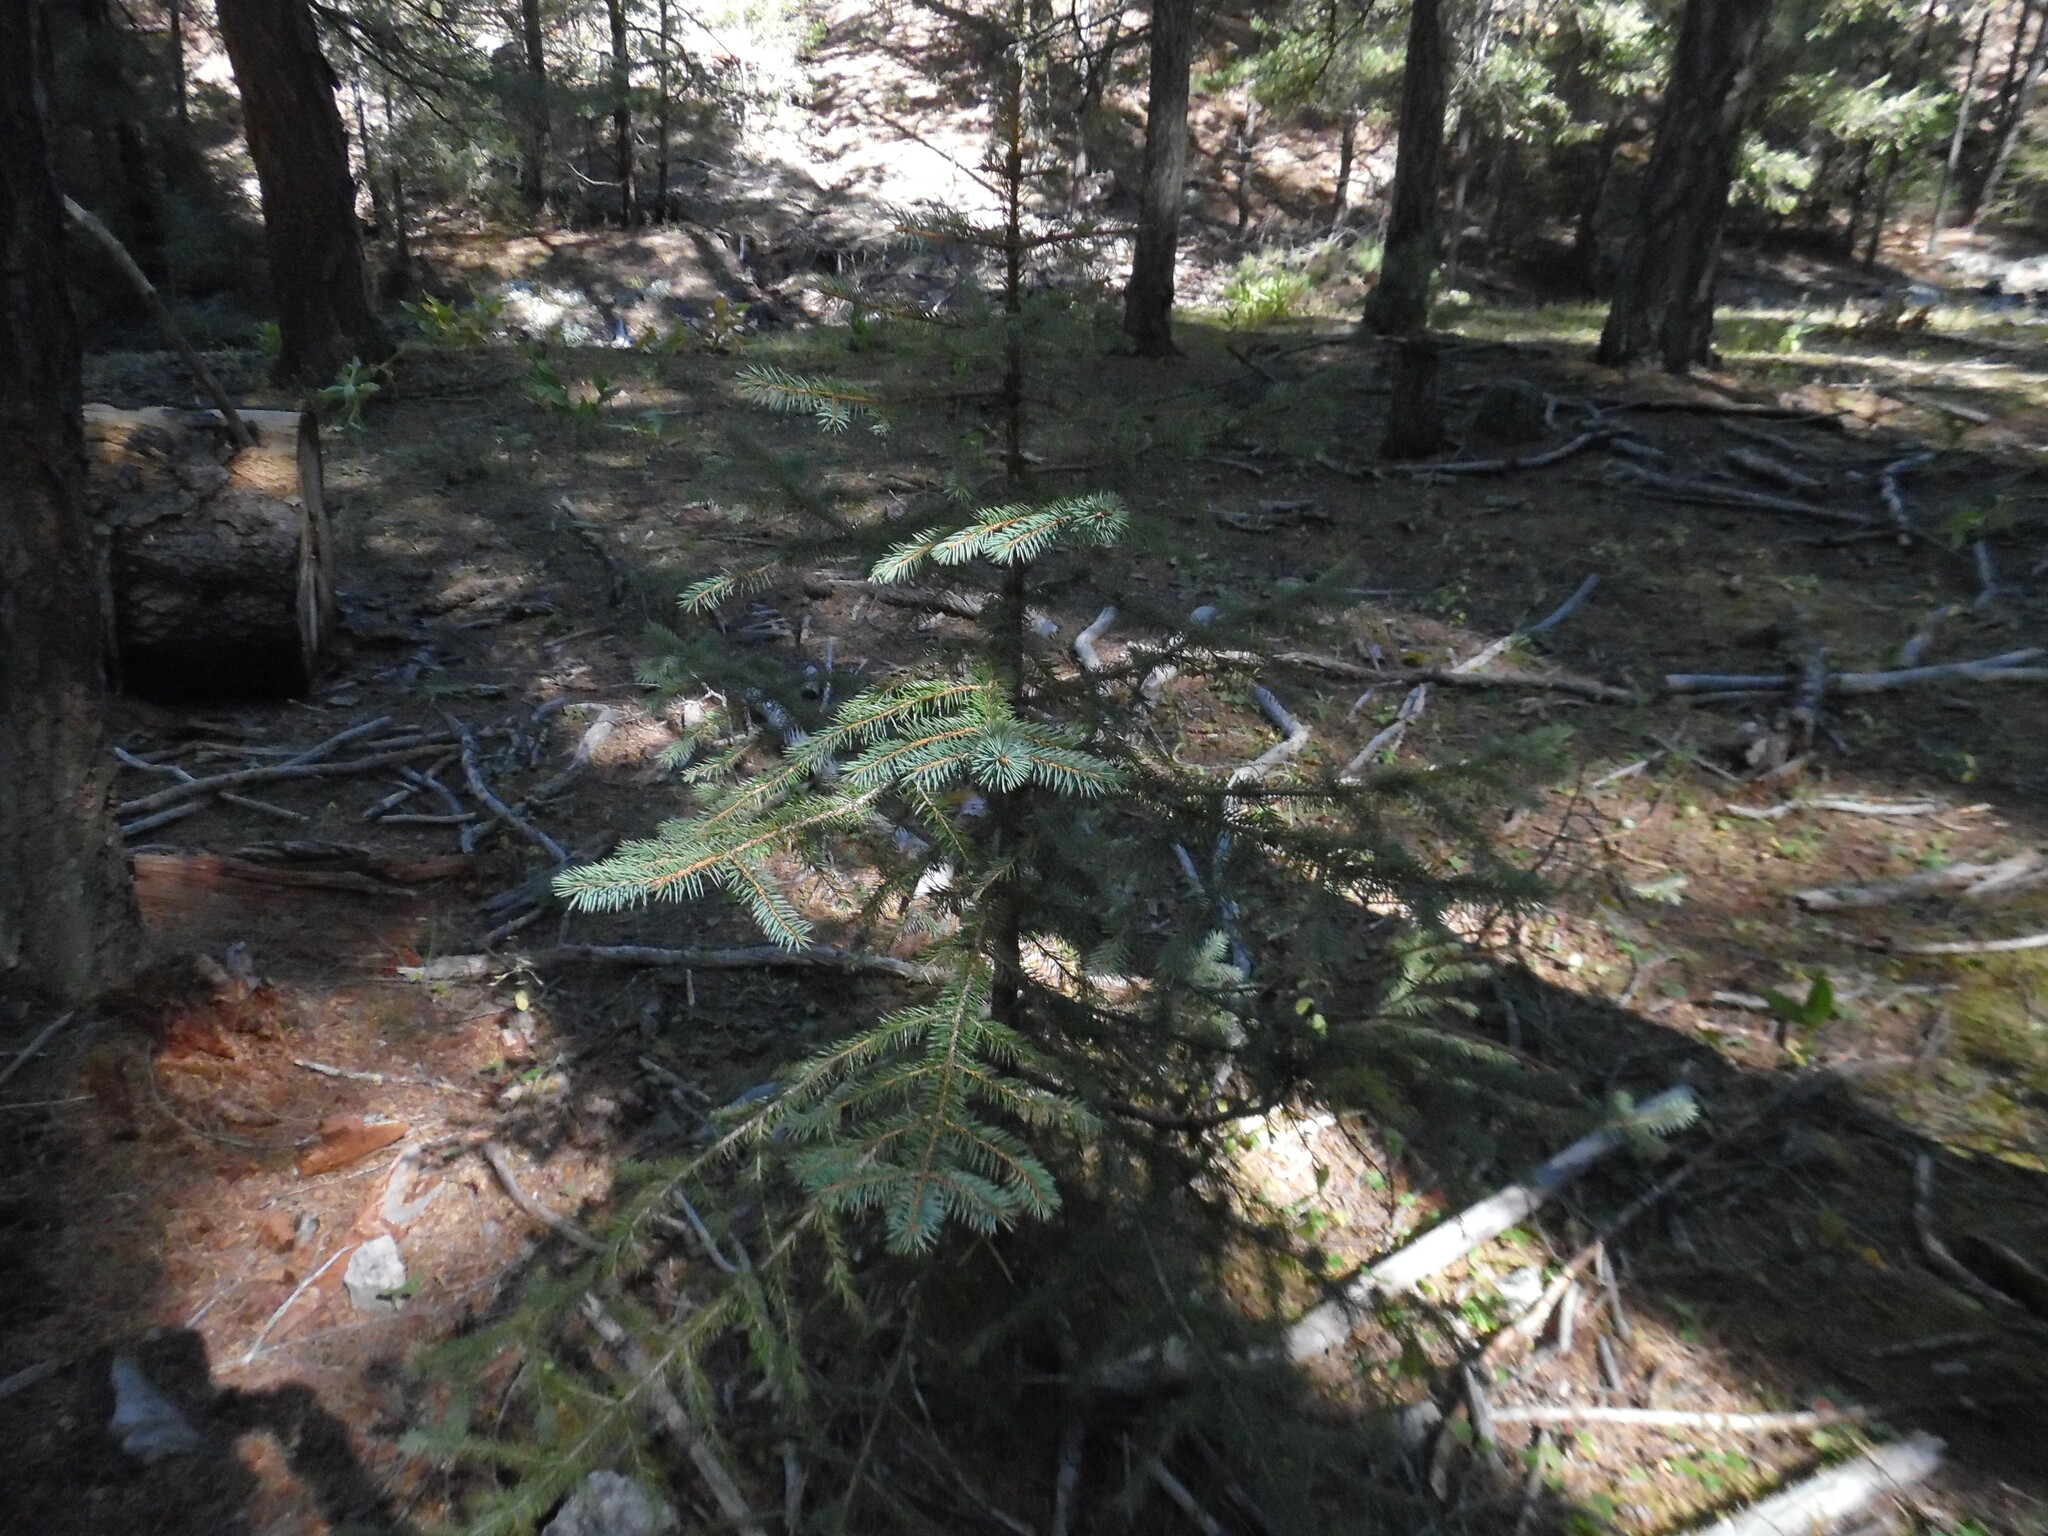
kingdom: Plantae
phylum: Tracheophyta
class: Pinopsida
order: Pinales
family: Pinaceae
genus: Picea
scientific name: Picea chihuahuana
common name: Chihuahua spruce
